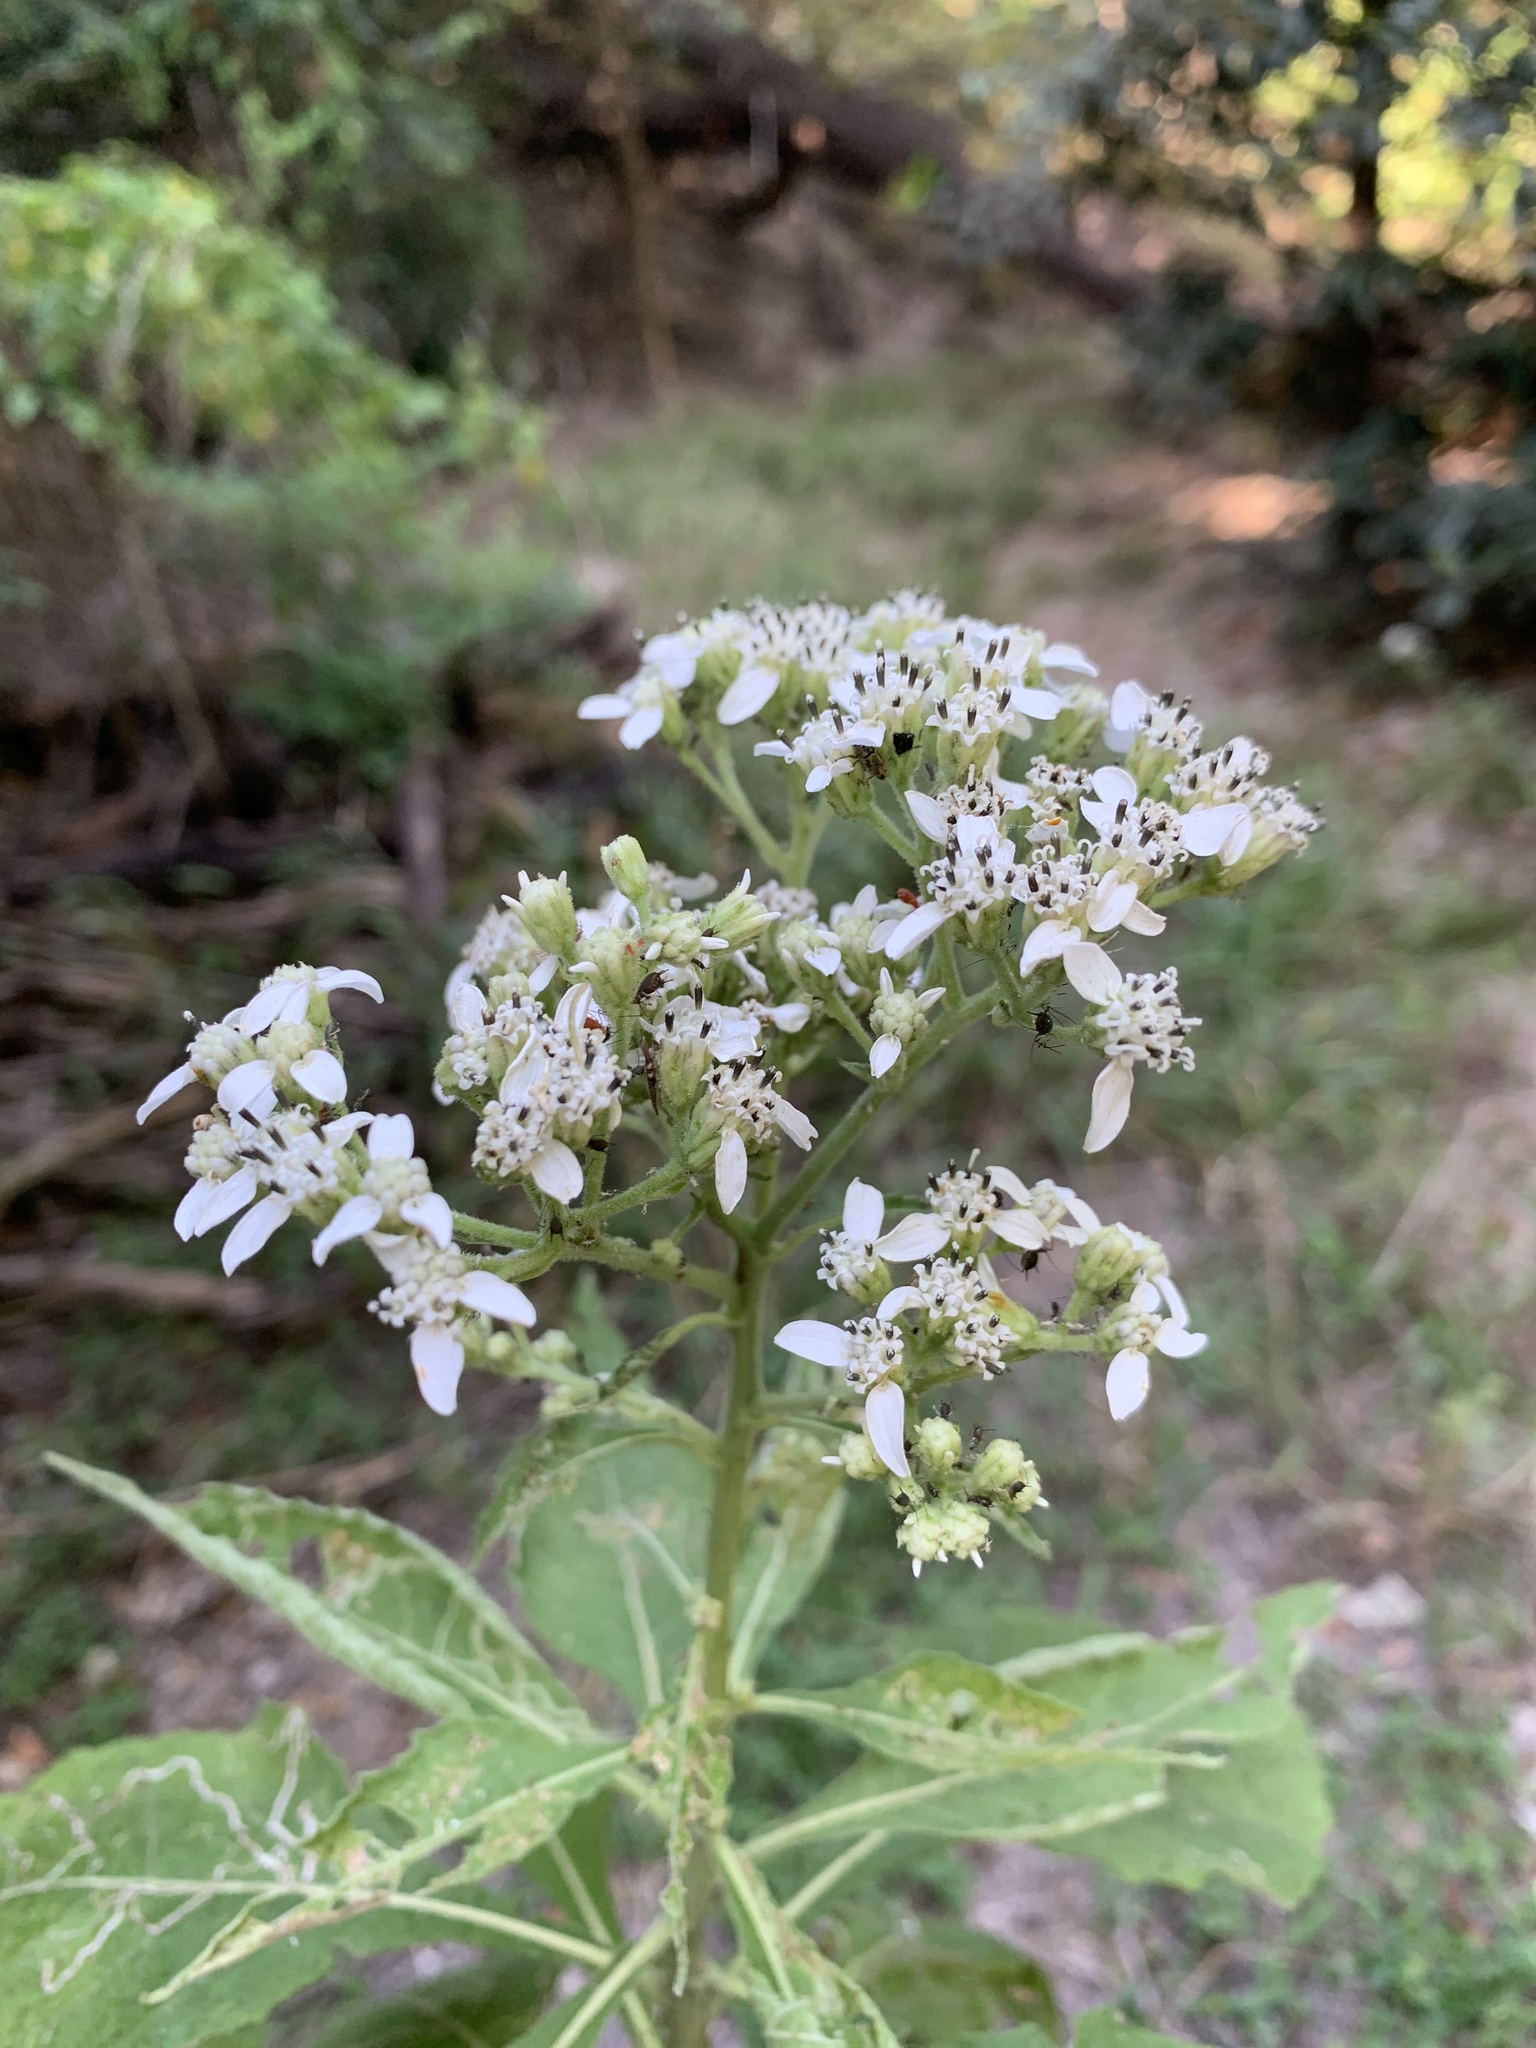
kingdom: Plantae
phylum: Tracheophyta
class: Magnoliopsida
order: Asterales
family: Asteraceae
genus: Verbesina
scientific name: Verbesina virginica
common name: Frostweed
